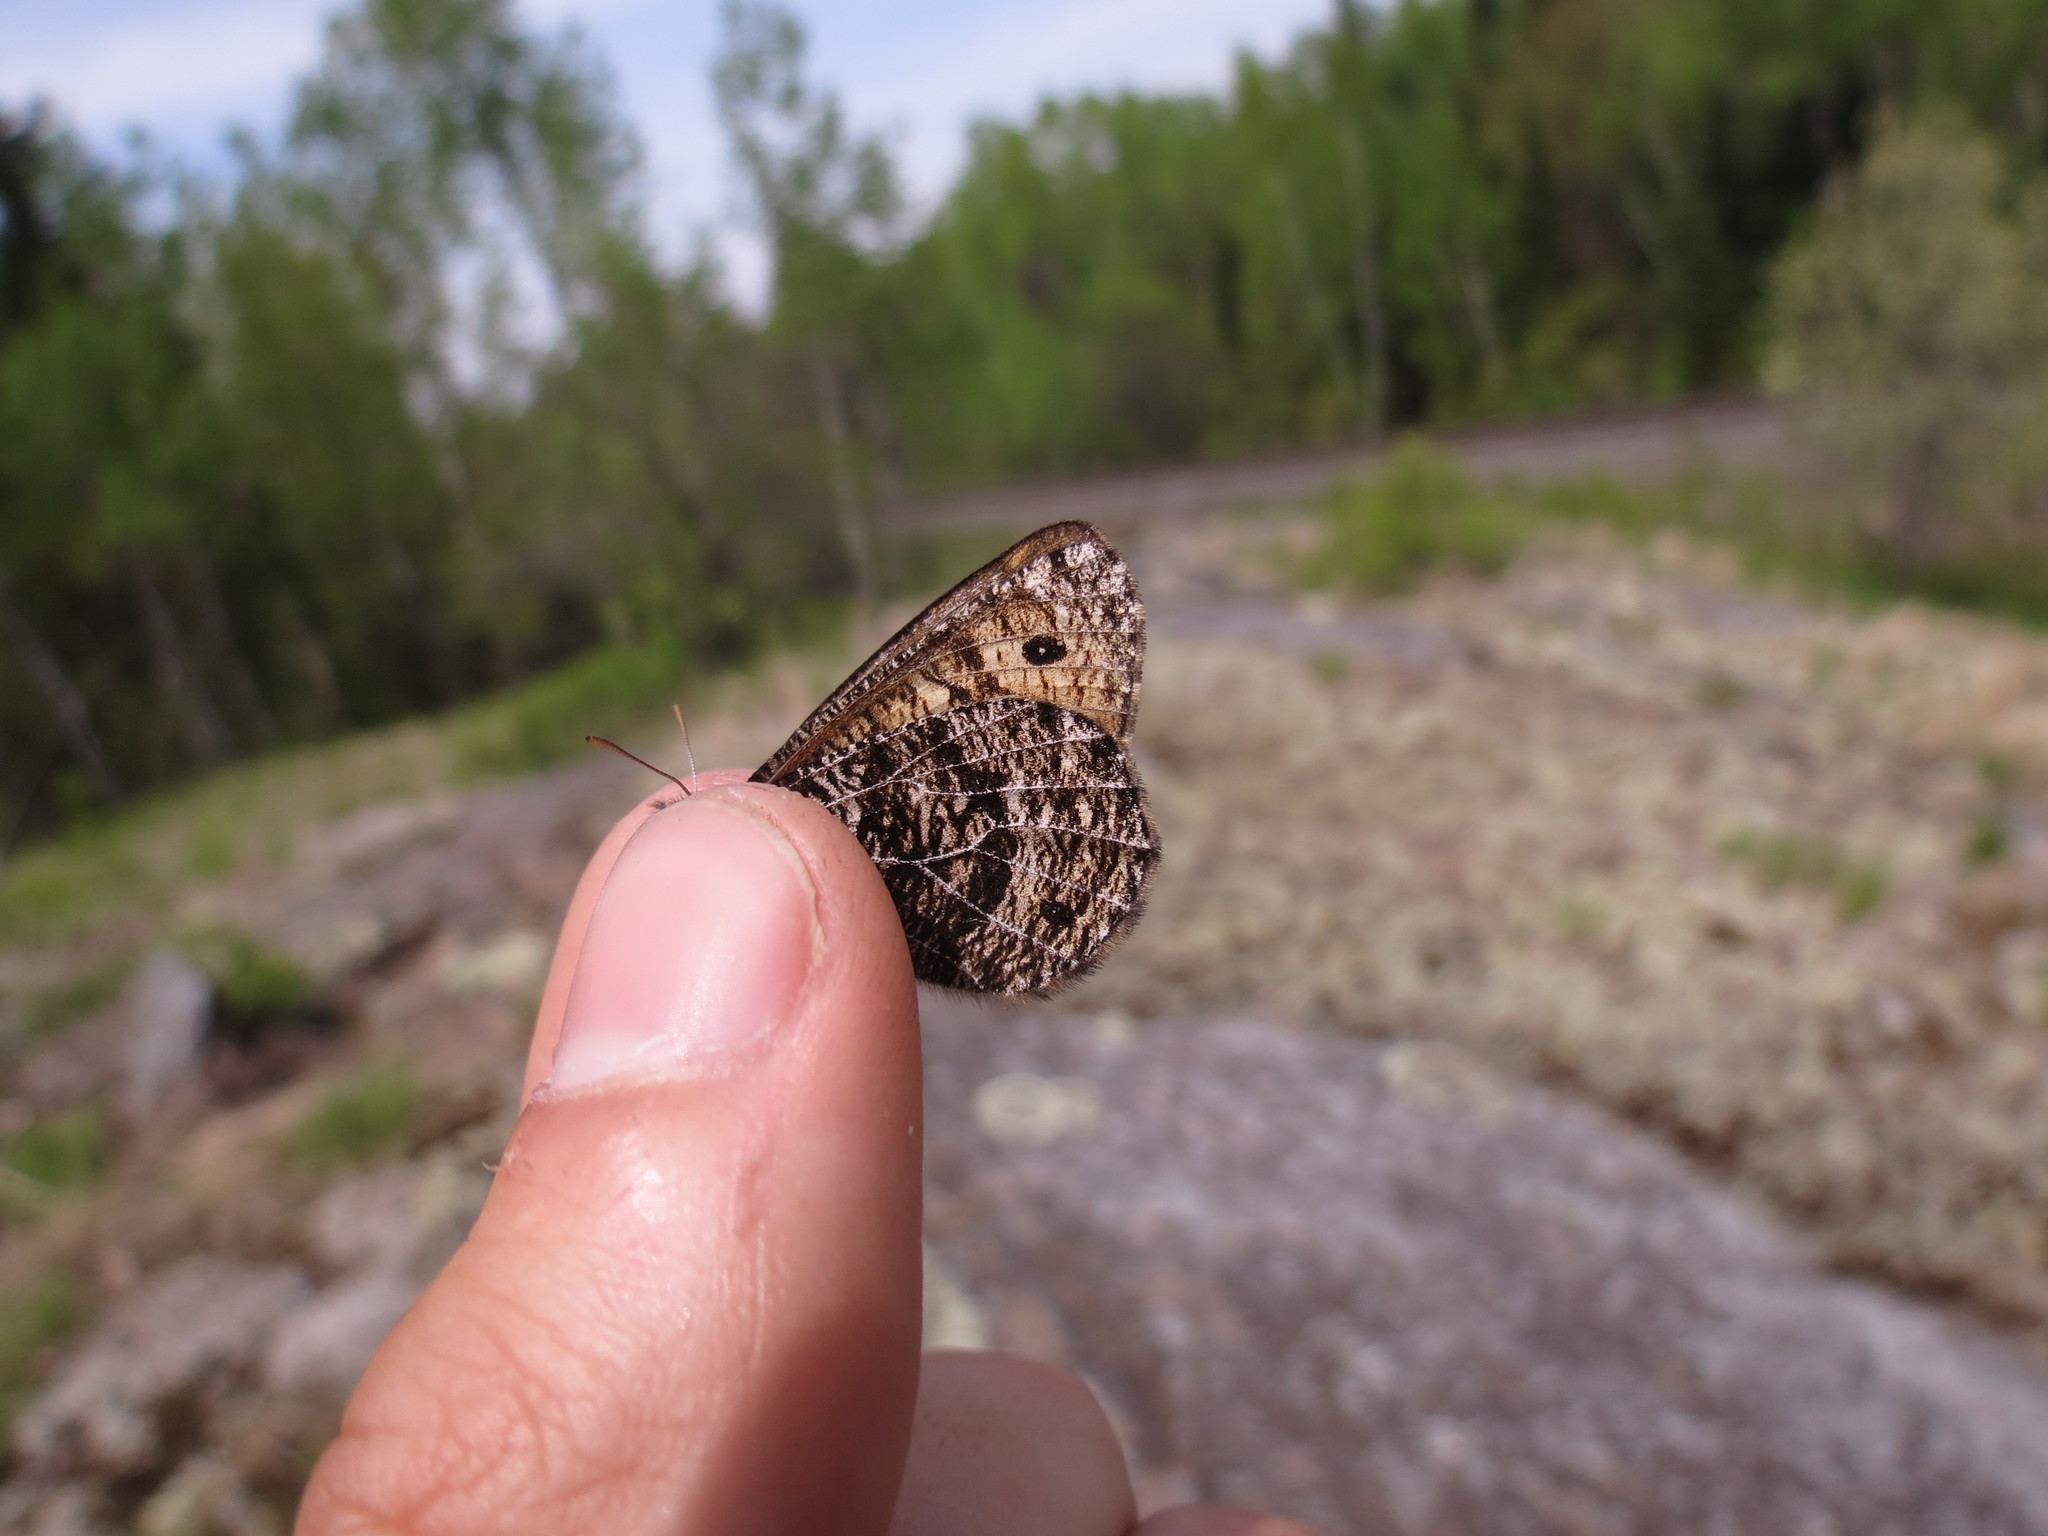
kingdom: Animalia
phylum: Arthropoda
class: Insecta
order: Lepidoptera
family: Nymphalidae
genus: Oeneis
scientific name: Oeneis chryxus
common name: Chryxus arctic
